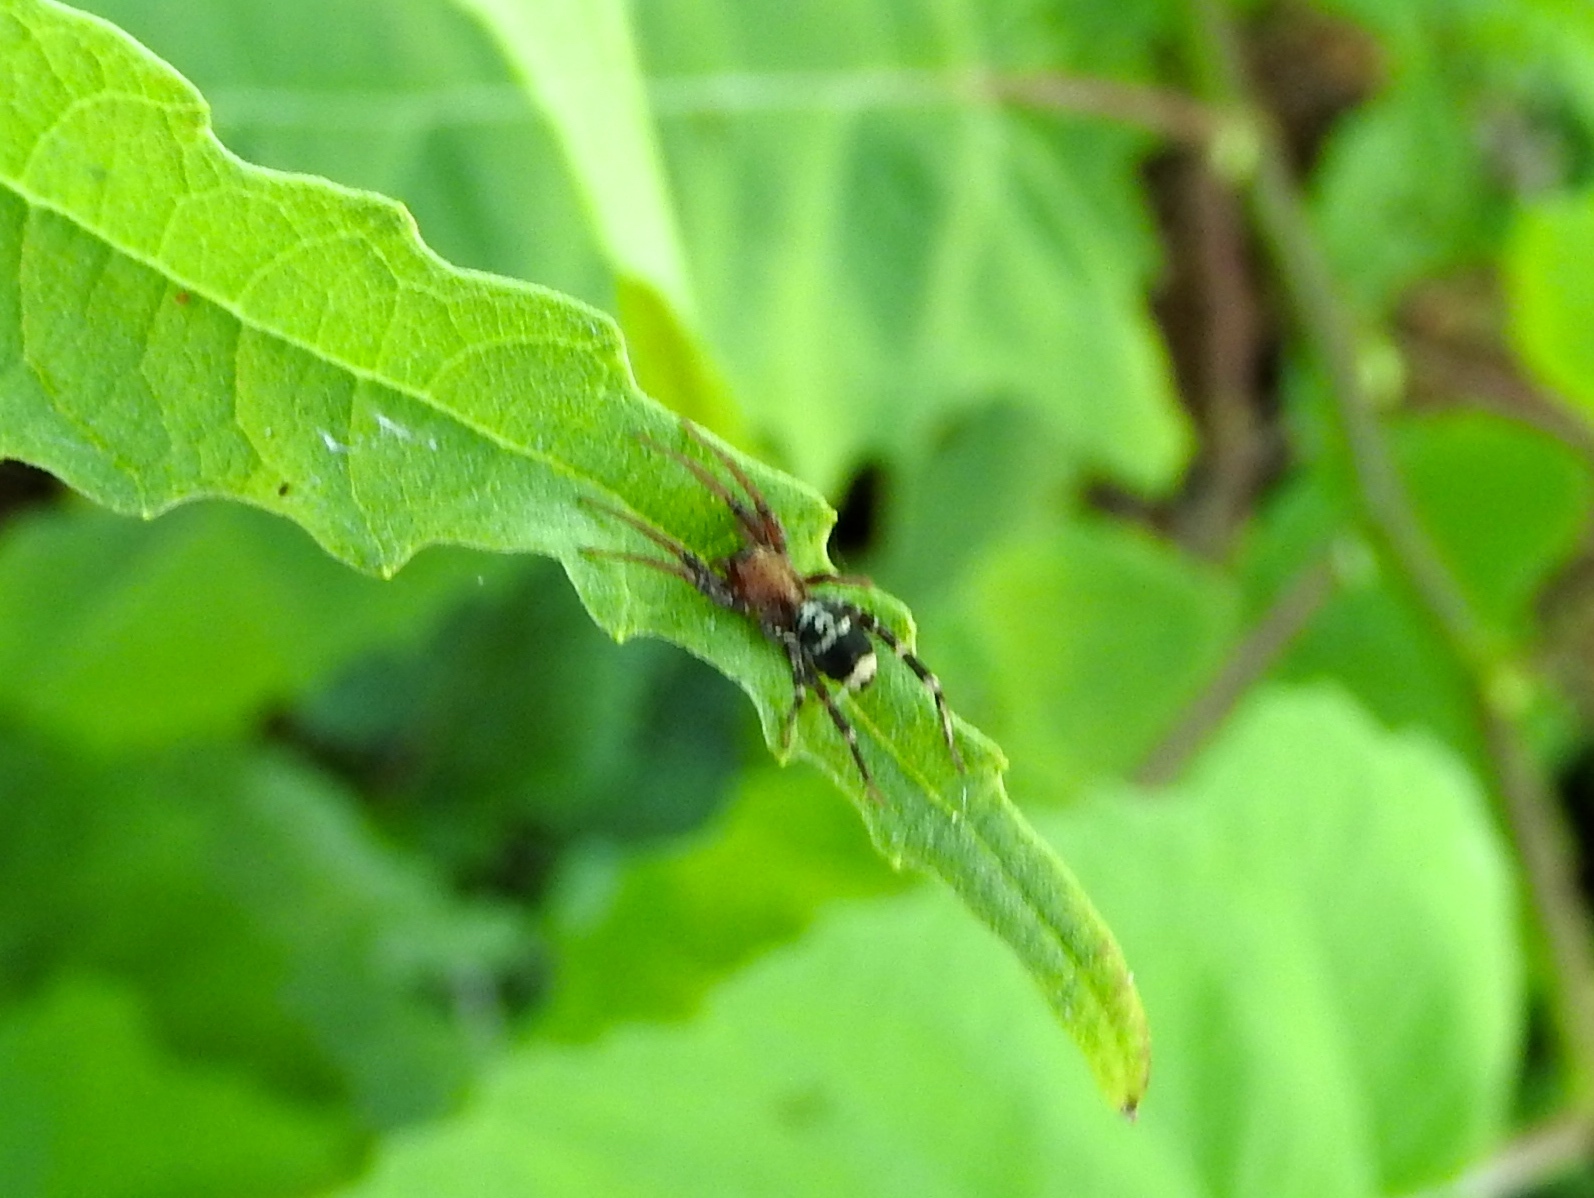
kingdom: Animalia
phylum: Arthropoda
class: Arachnida
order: Araneae
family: Corinnidae
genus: Castianeira
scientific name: Castianeira
